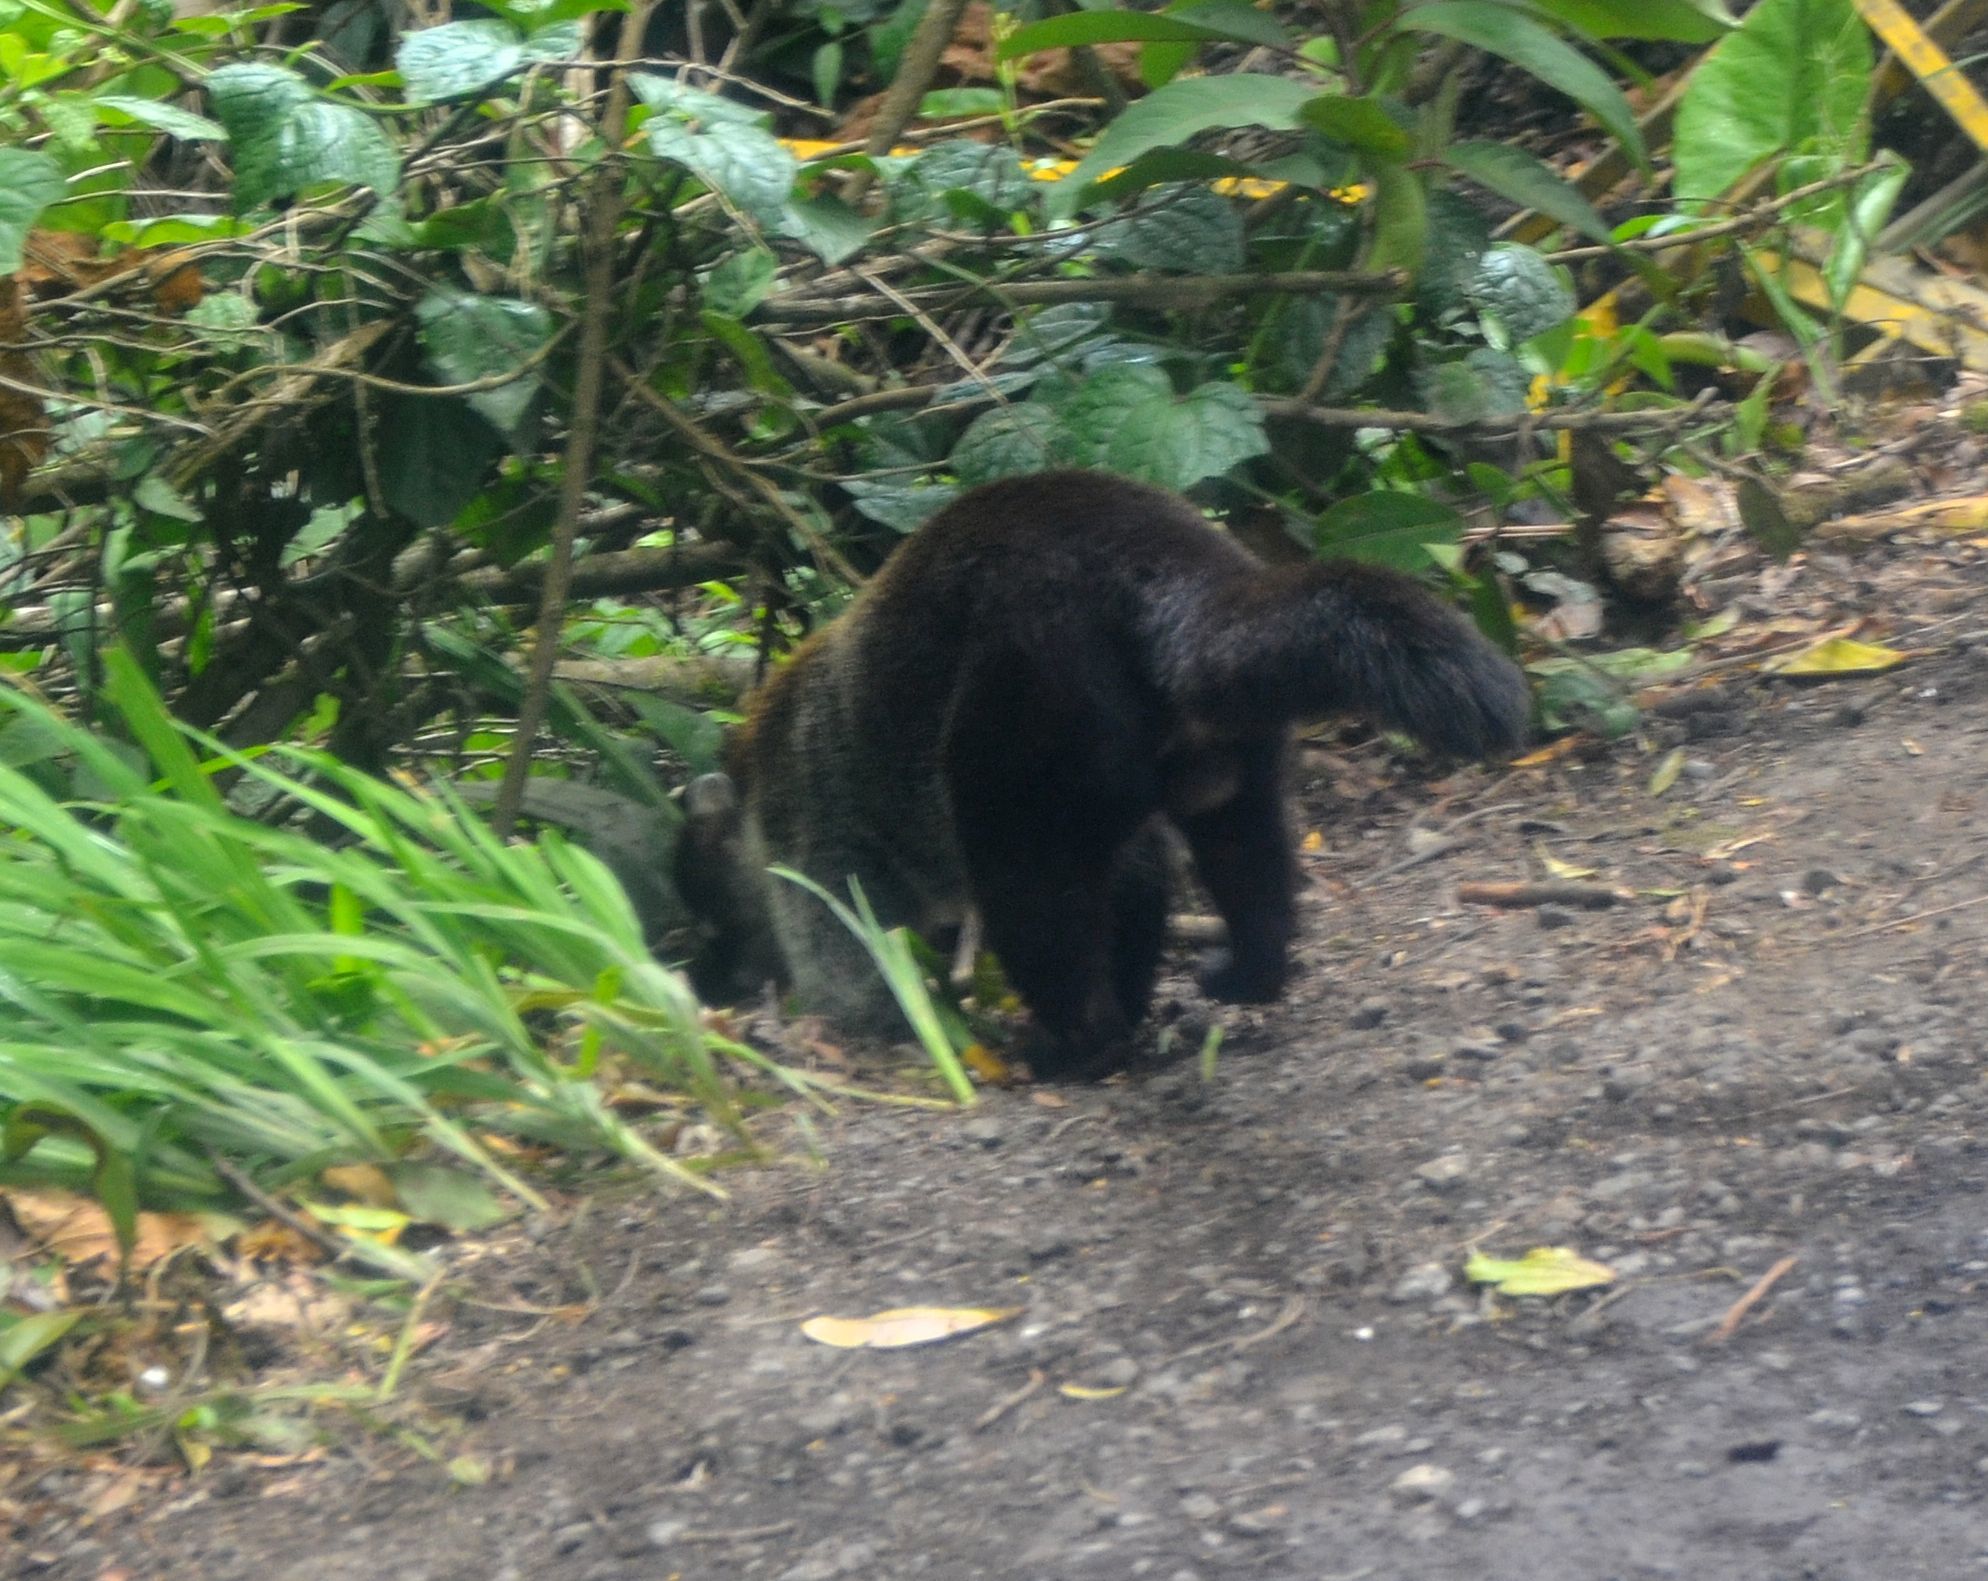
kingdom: Animalia
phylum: Chordata
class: Mammalia
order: Carnivora
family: Procyonidae
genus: Nasua
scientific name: Nasua narica
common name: White-nosed coati
